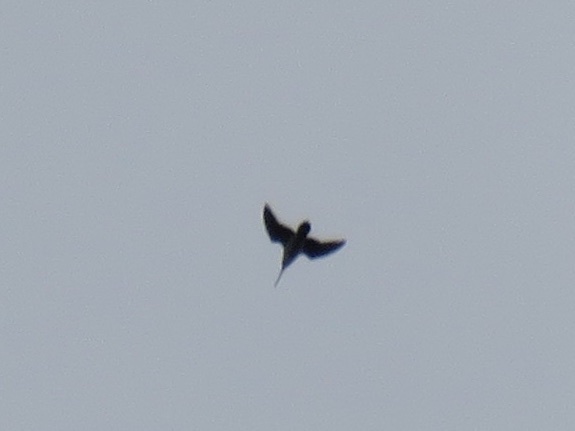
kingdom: Animalia
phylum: Chordata
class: Aves
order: Charadriiformes
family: Scolopacidae
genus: Gallinago
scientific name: Gallinago delicata
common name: Wilson's snipe
